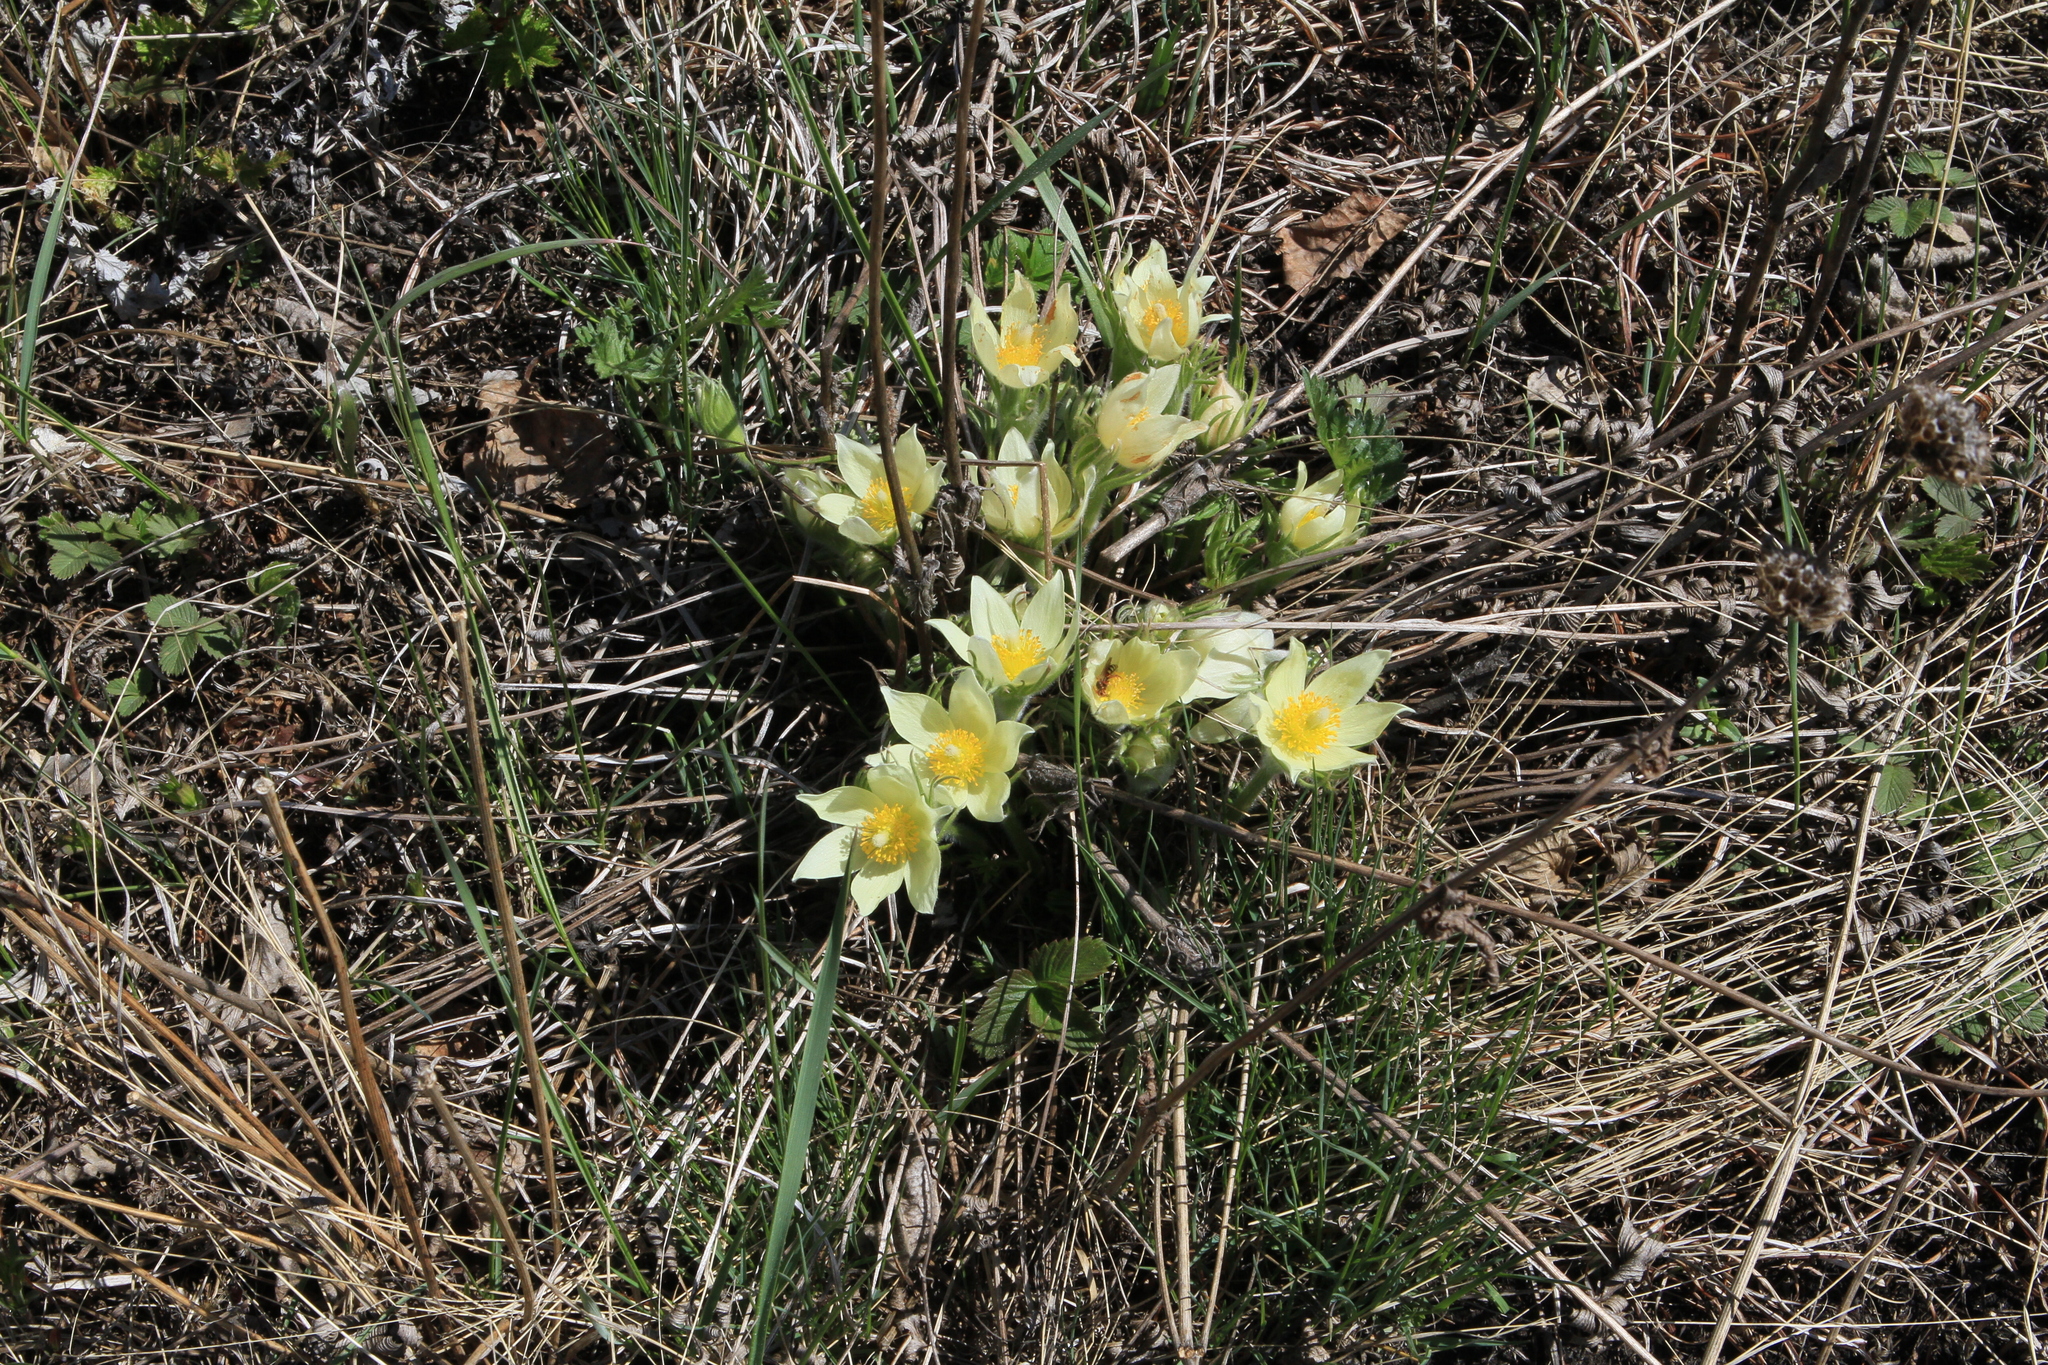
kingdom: Plantae
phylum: Tracheophyta
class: Magnoliopsida
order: Ranunculales
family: Ranunculaceae
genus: Pulsatilla
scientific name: Pulsatilla patens
